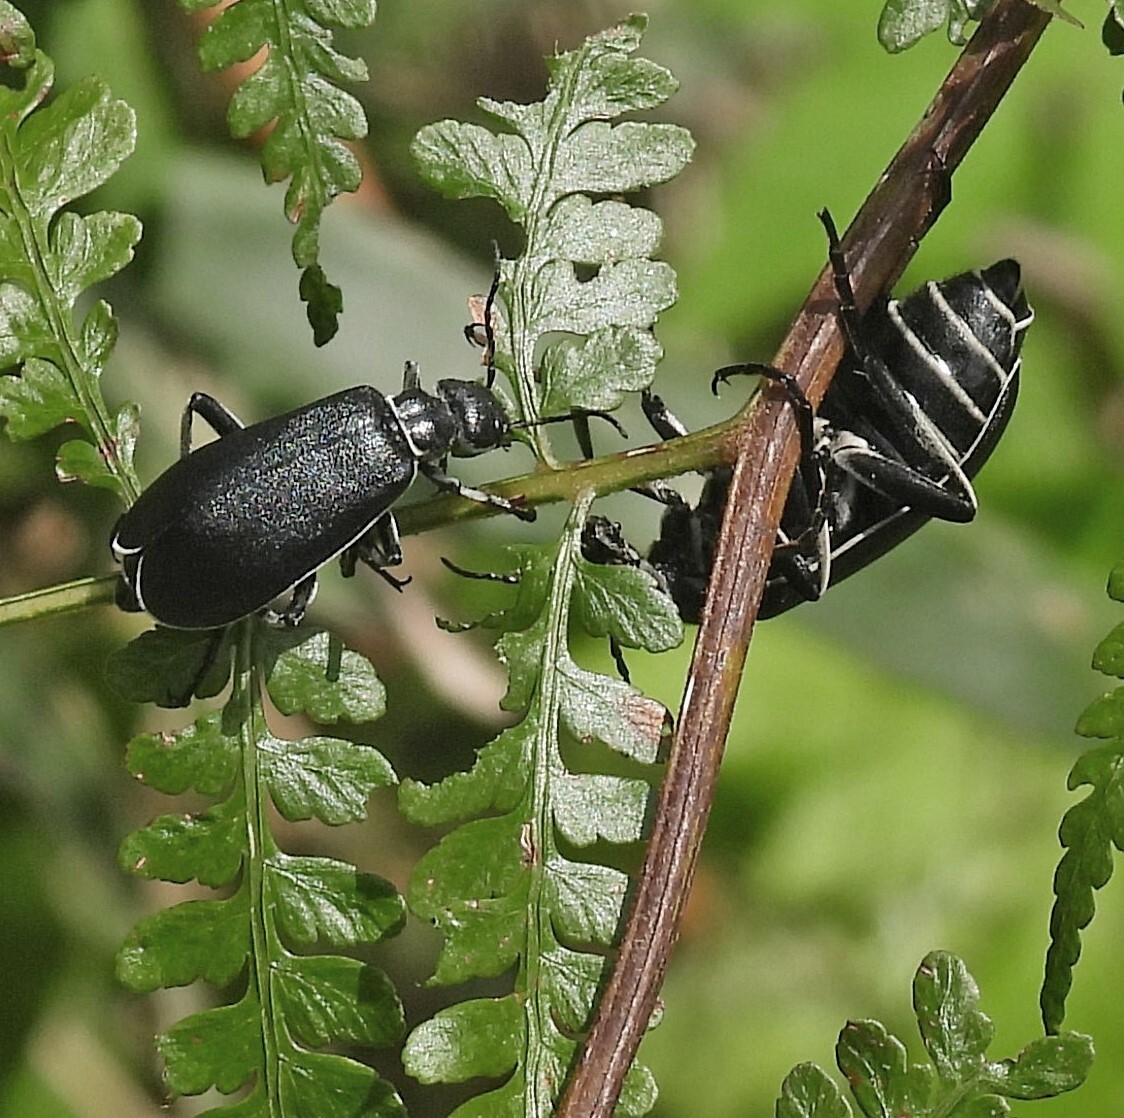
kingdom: Animalia
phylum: Arthropoda
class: Insecta
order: Coleoptera
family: Meloidae
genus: Epicauta
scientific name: Epicauta
